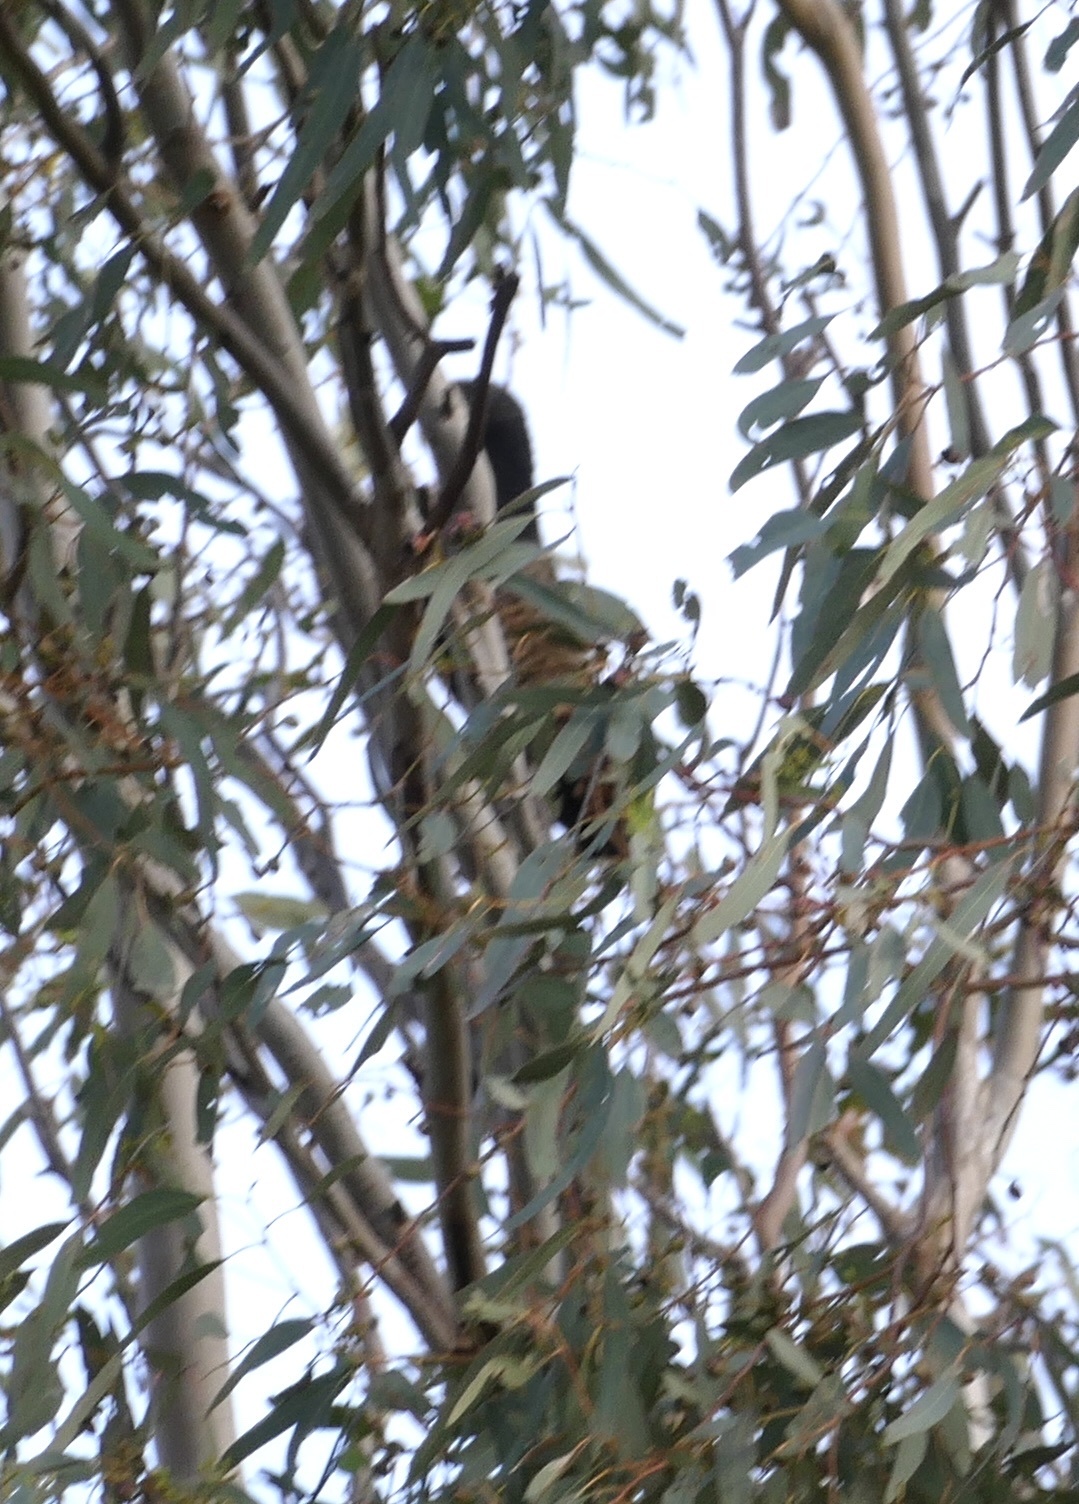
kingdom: Animalia
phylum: Chordata
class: Aves
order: Cuculiformes
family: Cuculidae
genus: Centropus
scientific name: Centropus phasianinus
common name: Pheasant coucal
